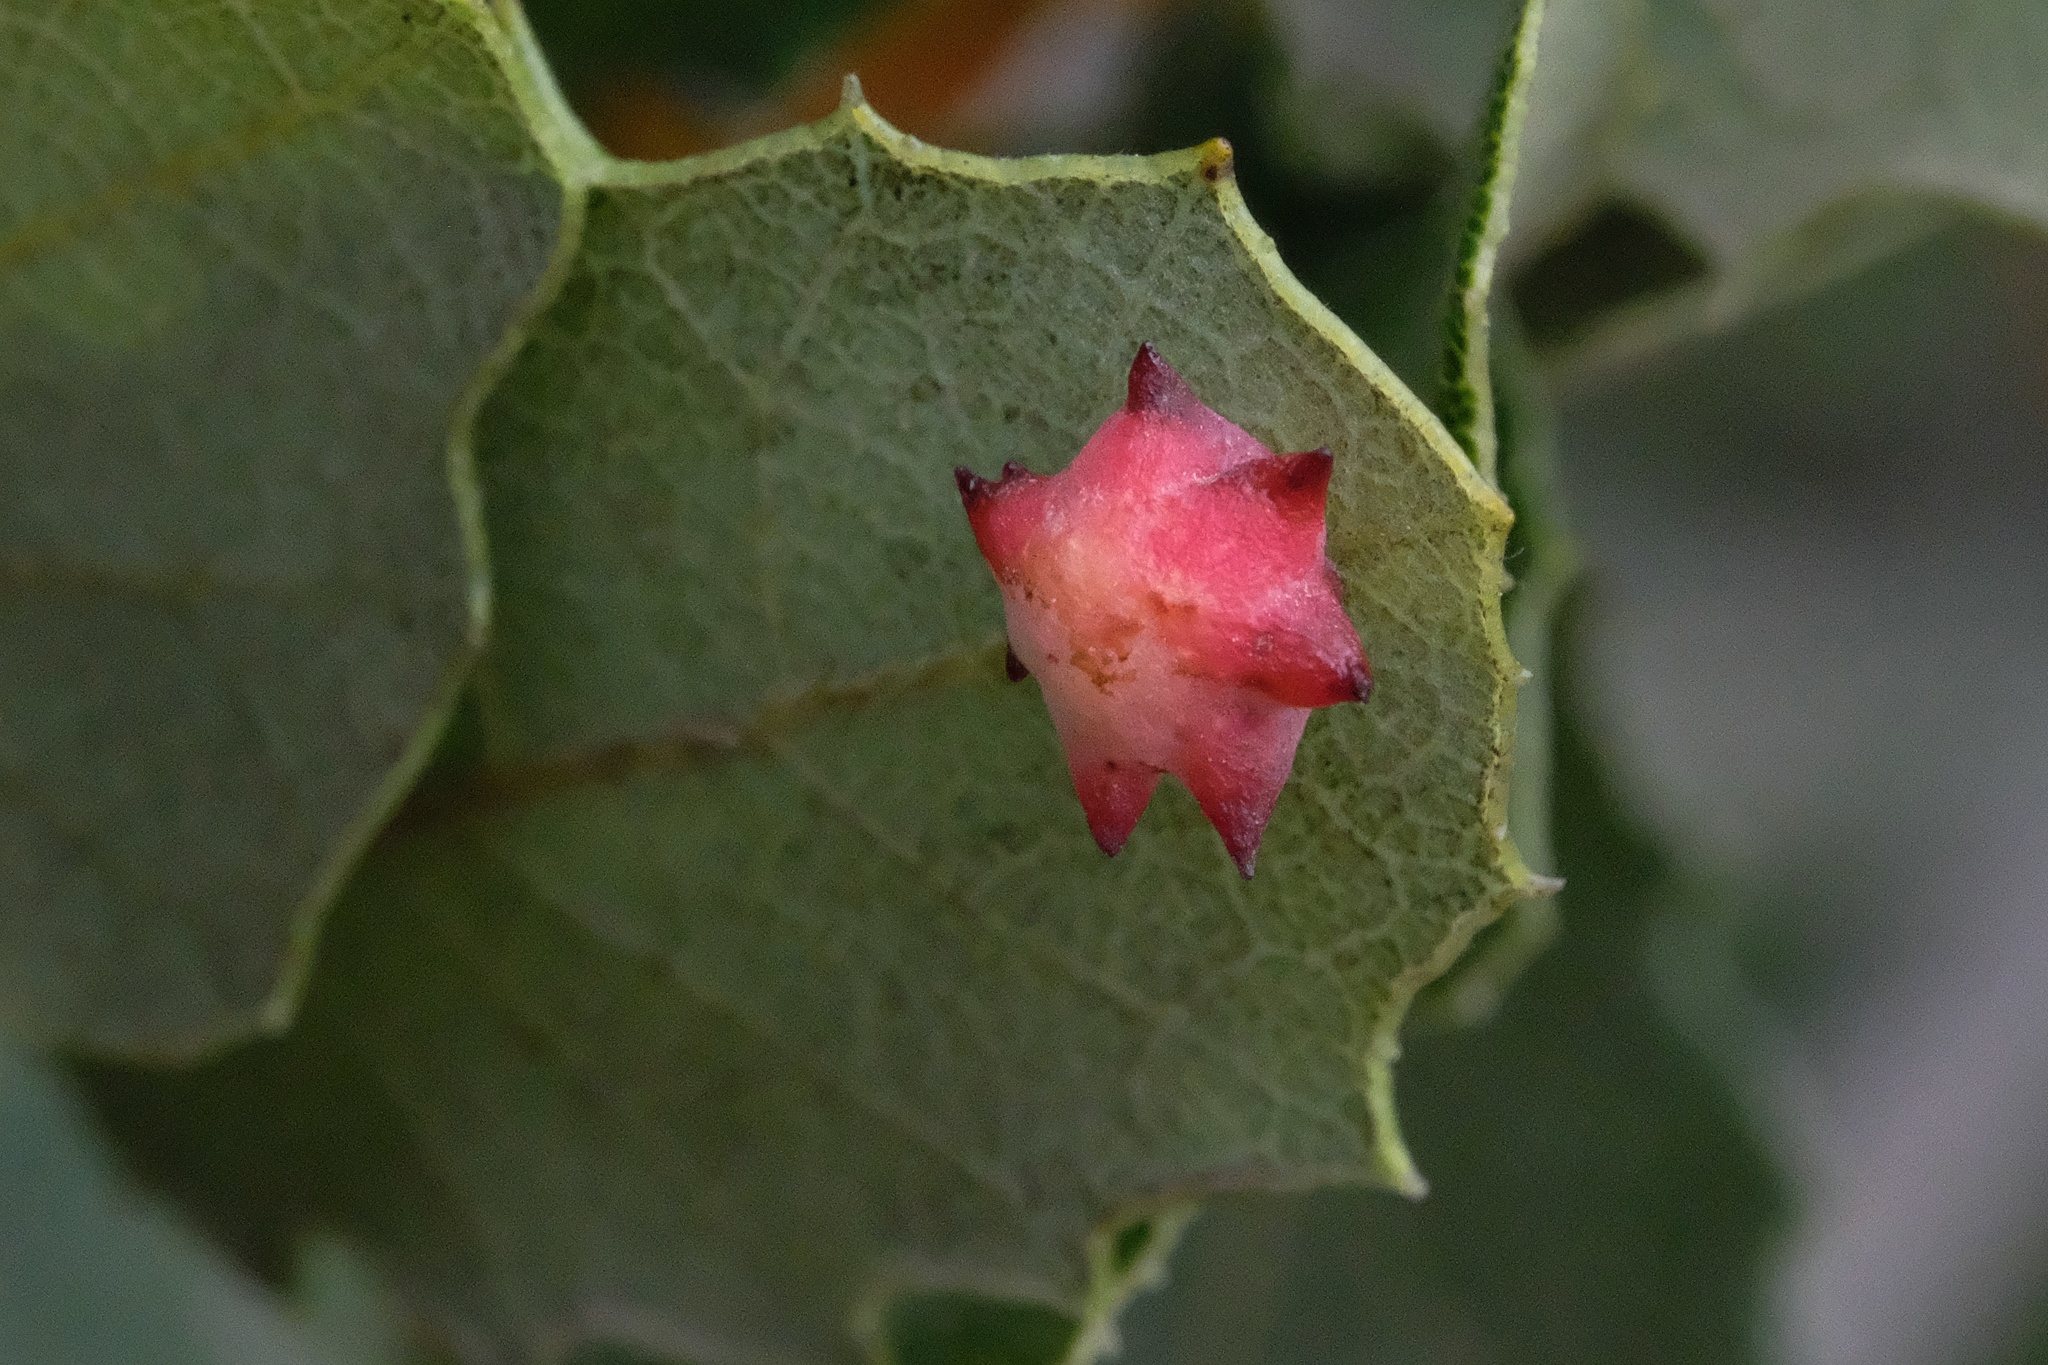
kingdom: Animalia
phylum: Arthropoda
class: Insecta
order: Hymenoptera
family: Cynipidae
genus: Cynips
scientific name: Cynips douglasi
